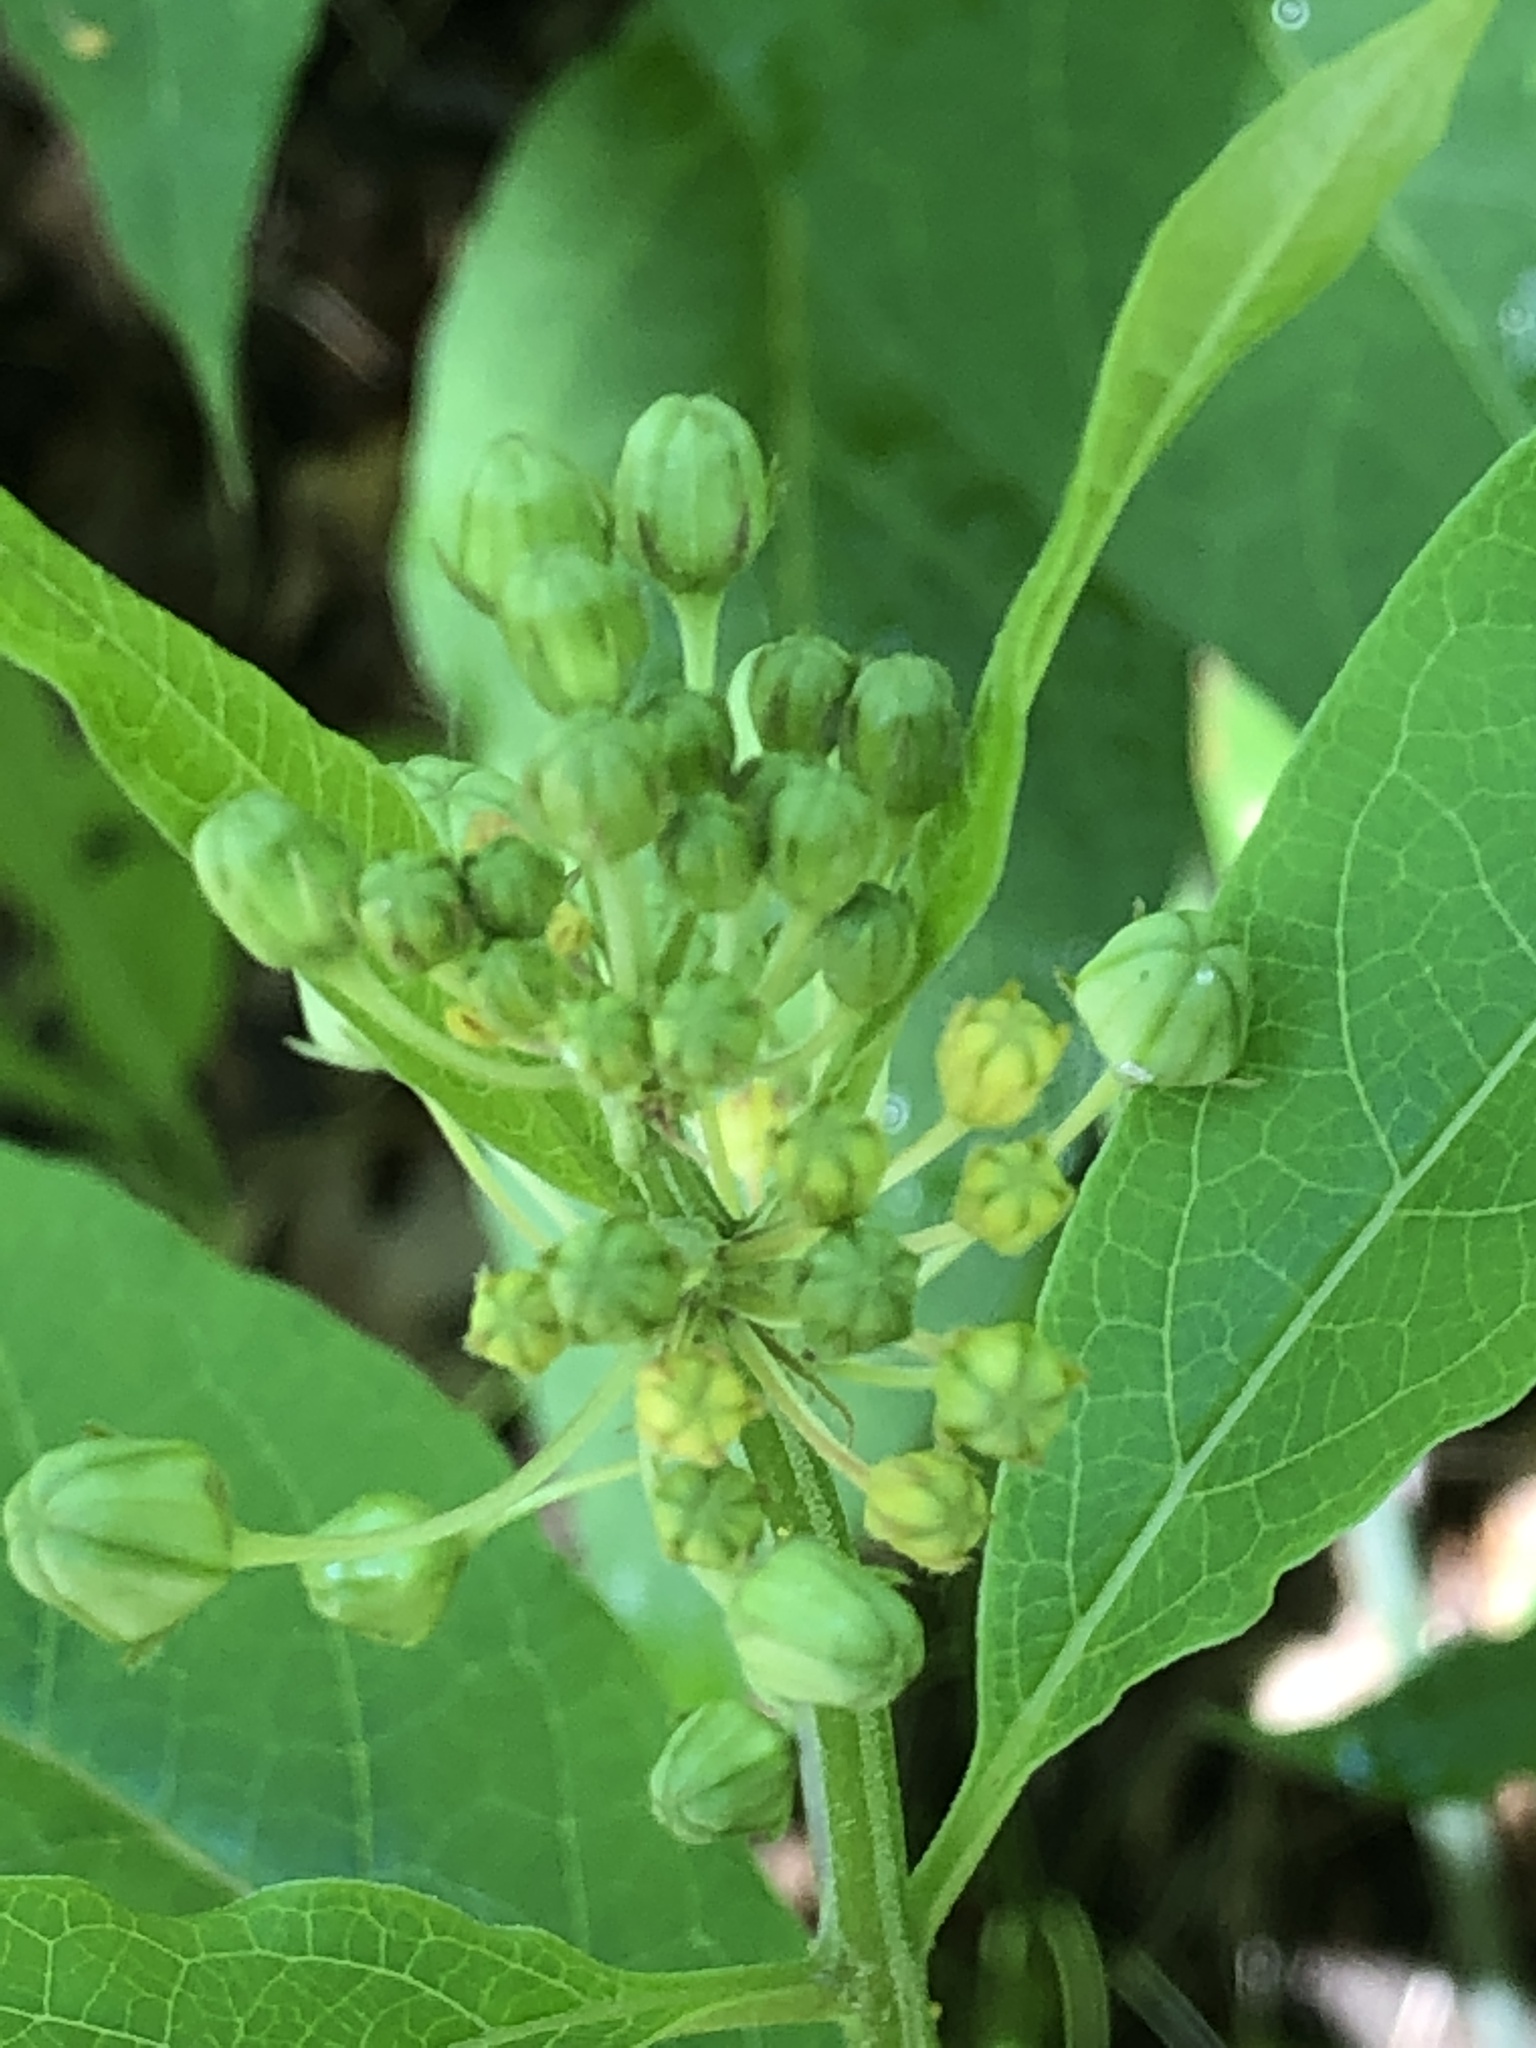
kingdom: Plantae
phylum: Tracheophyta
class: Magnoliopsida
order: Gentianales
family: Apocynaceae
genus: Asclepias
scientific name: Asclepias exaltata
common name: Poke milkweed
